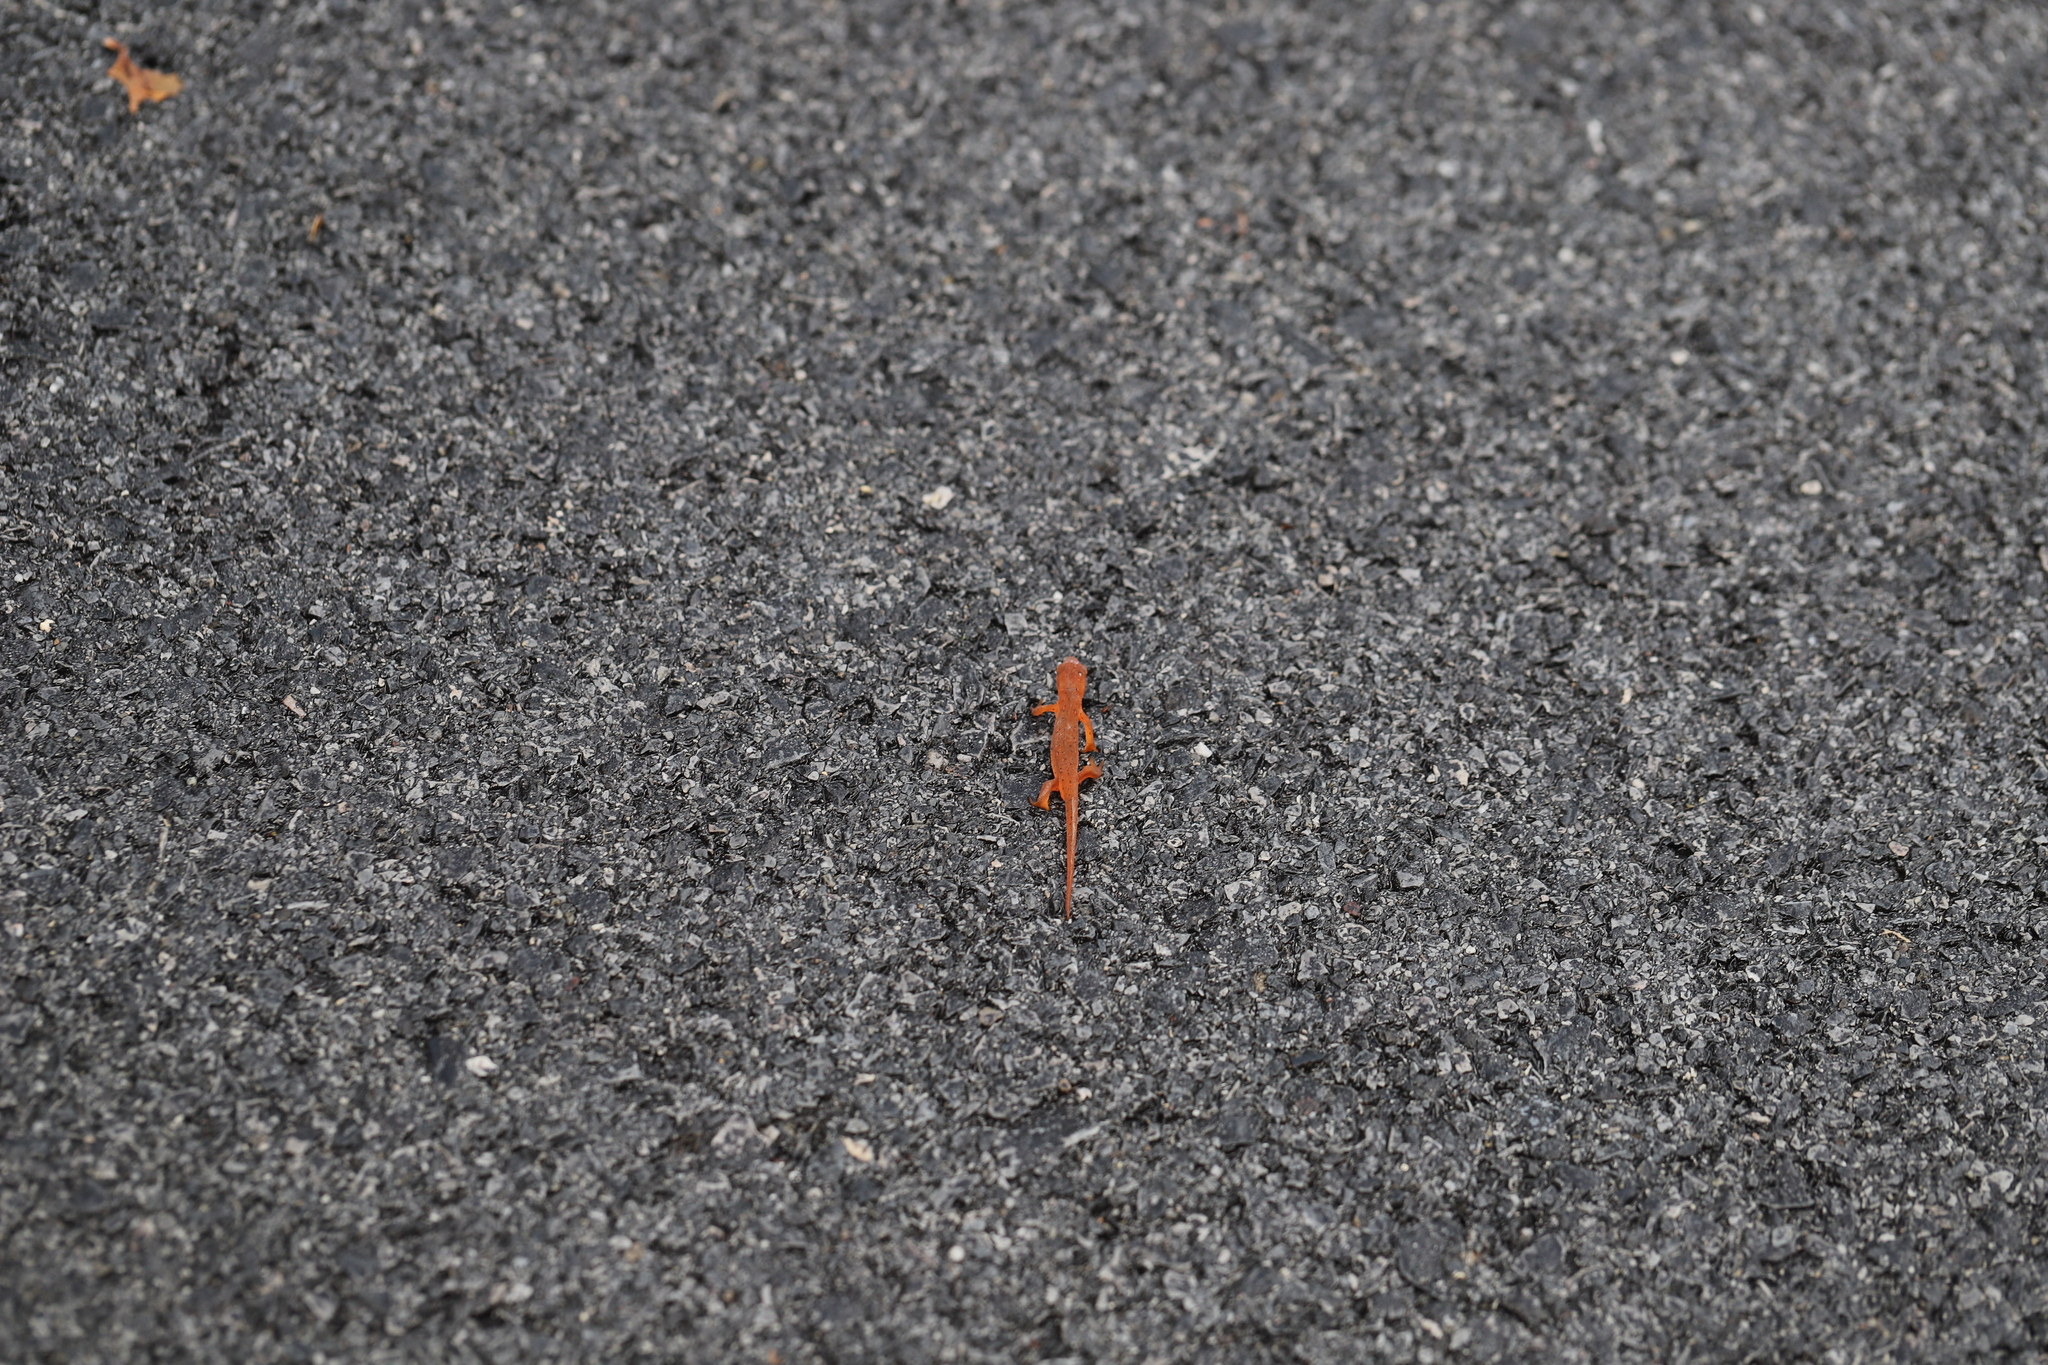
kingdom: Animalia
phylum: Chordata
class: Amphibia
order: Caudata
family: Salamandridae
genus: Notophthalmus
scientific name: Notophthalmus viridescens
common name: Eastern newt
